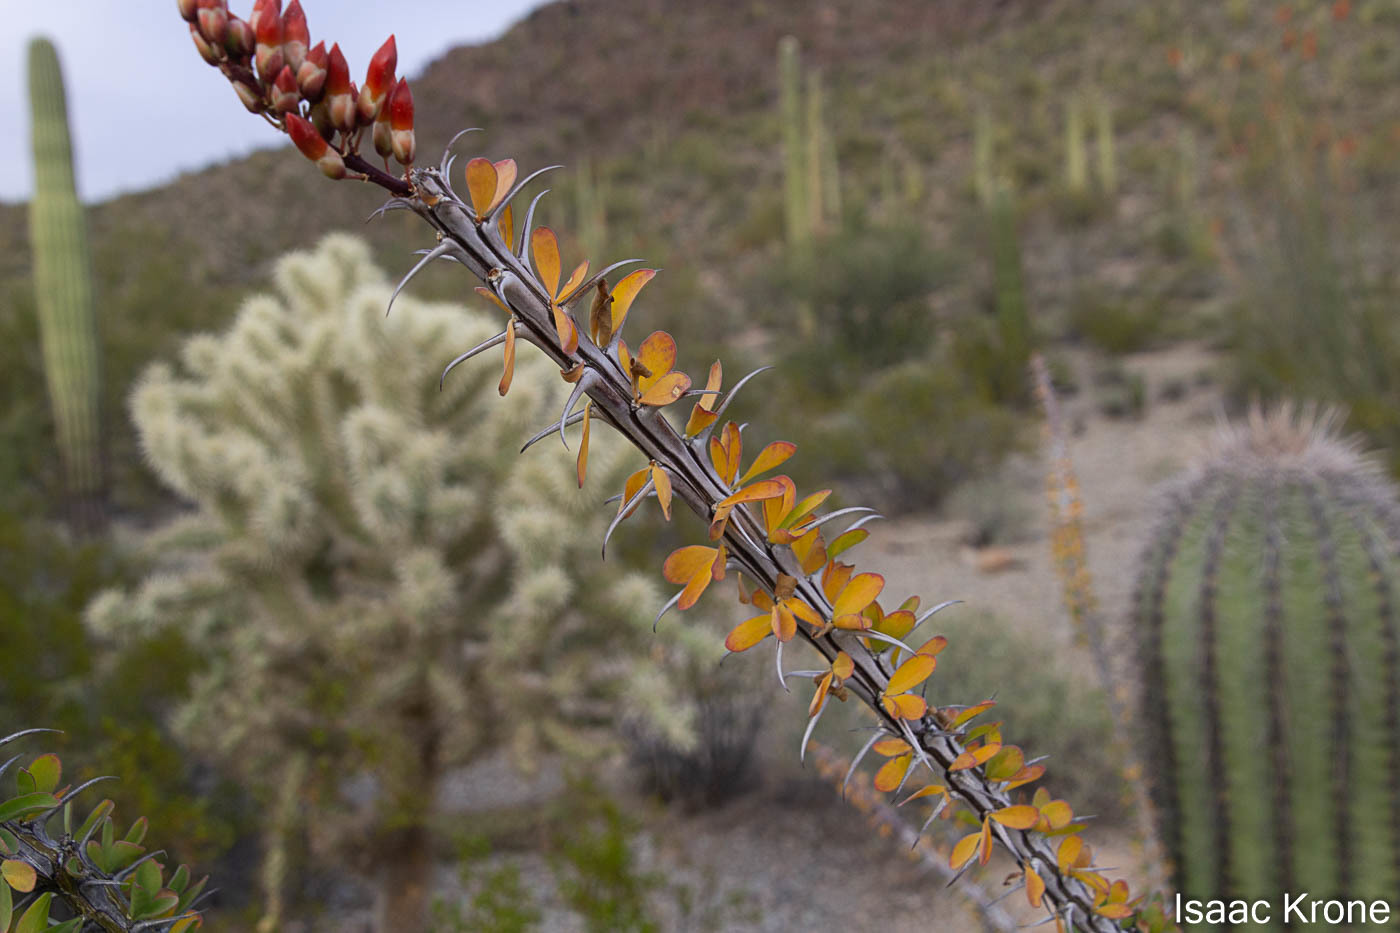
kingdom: Plantae
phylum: Tracheophyta
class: Magnoliopsida
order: Ericales
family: Fouquieriaceae
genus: Fouquieria
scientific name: Fouquieria splendens
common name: Vine-cactus
